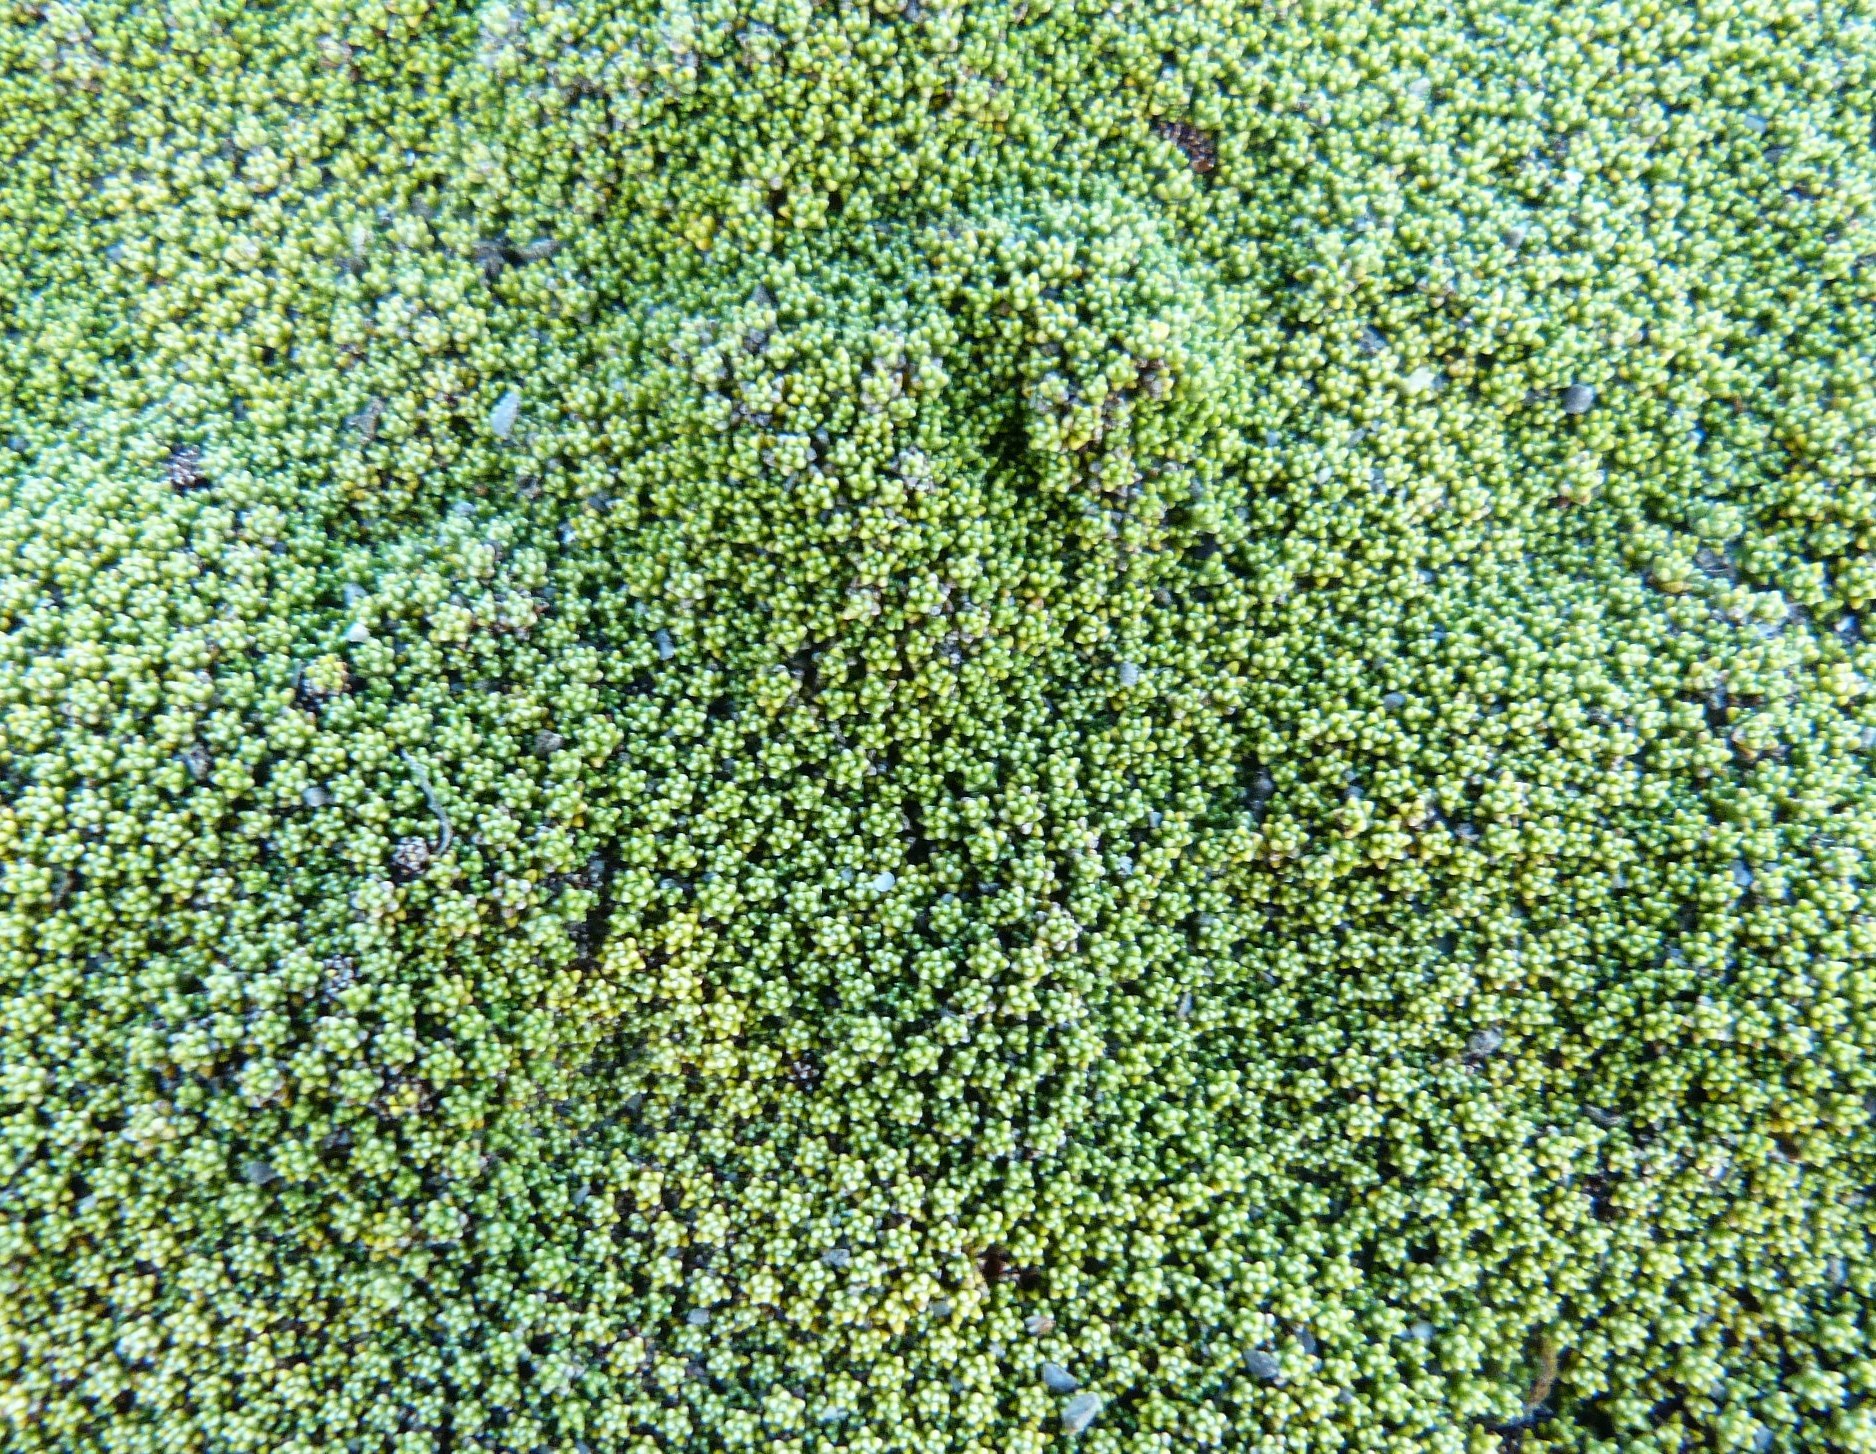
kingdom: Plantae
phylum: Tracheophyta
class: Magnoliopsida
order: Asterales
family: Asteraceae
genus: Raoulia
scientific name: Raoulia haastii
